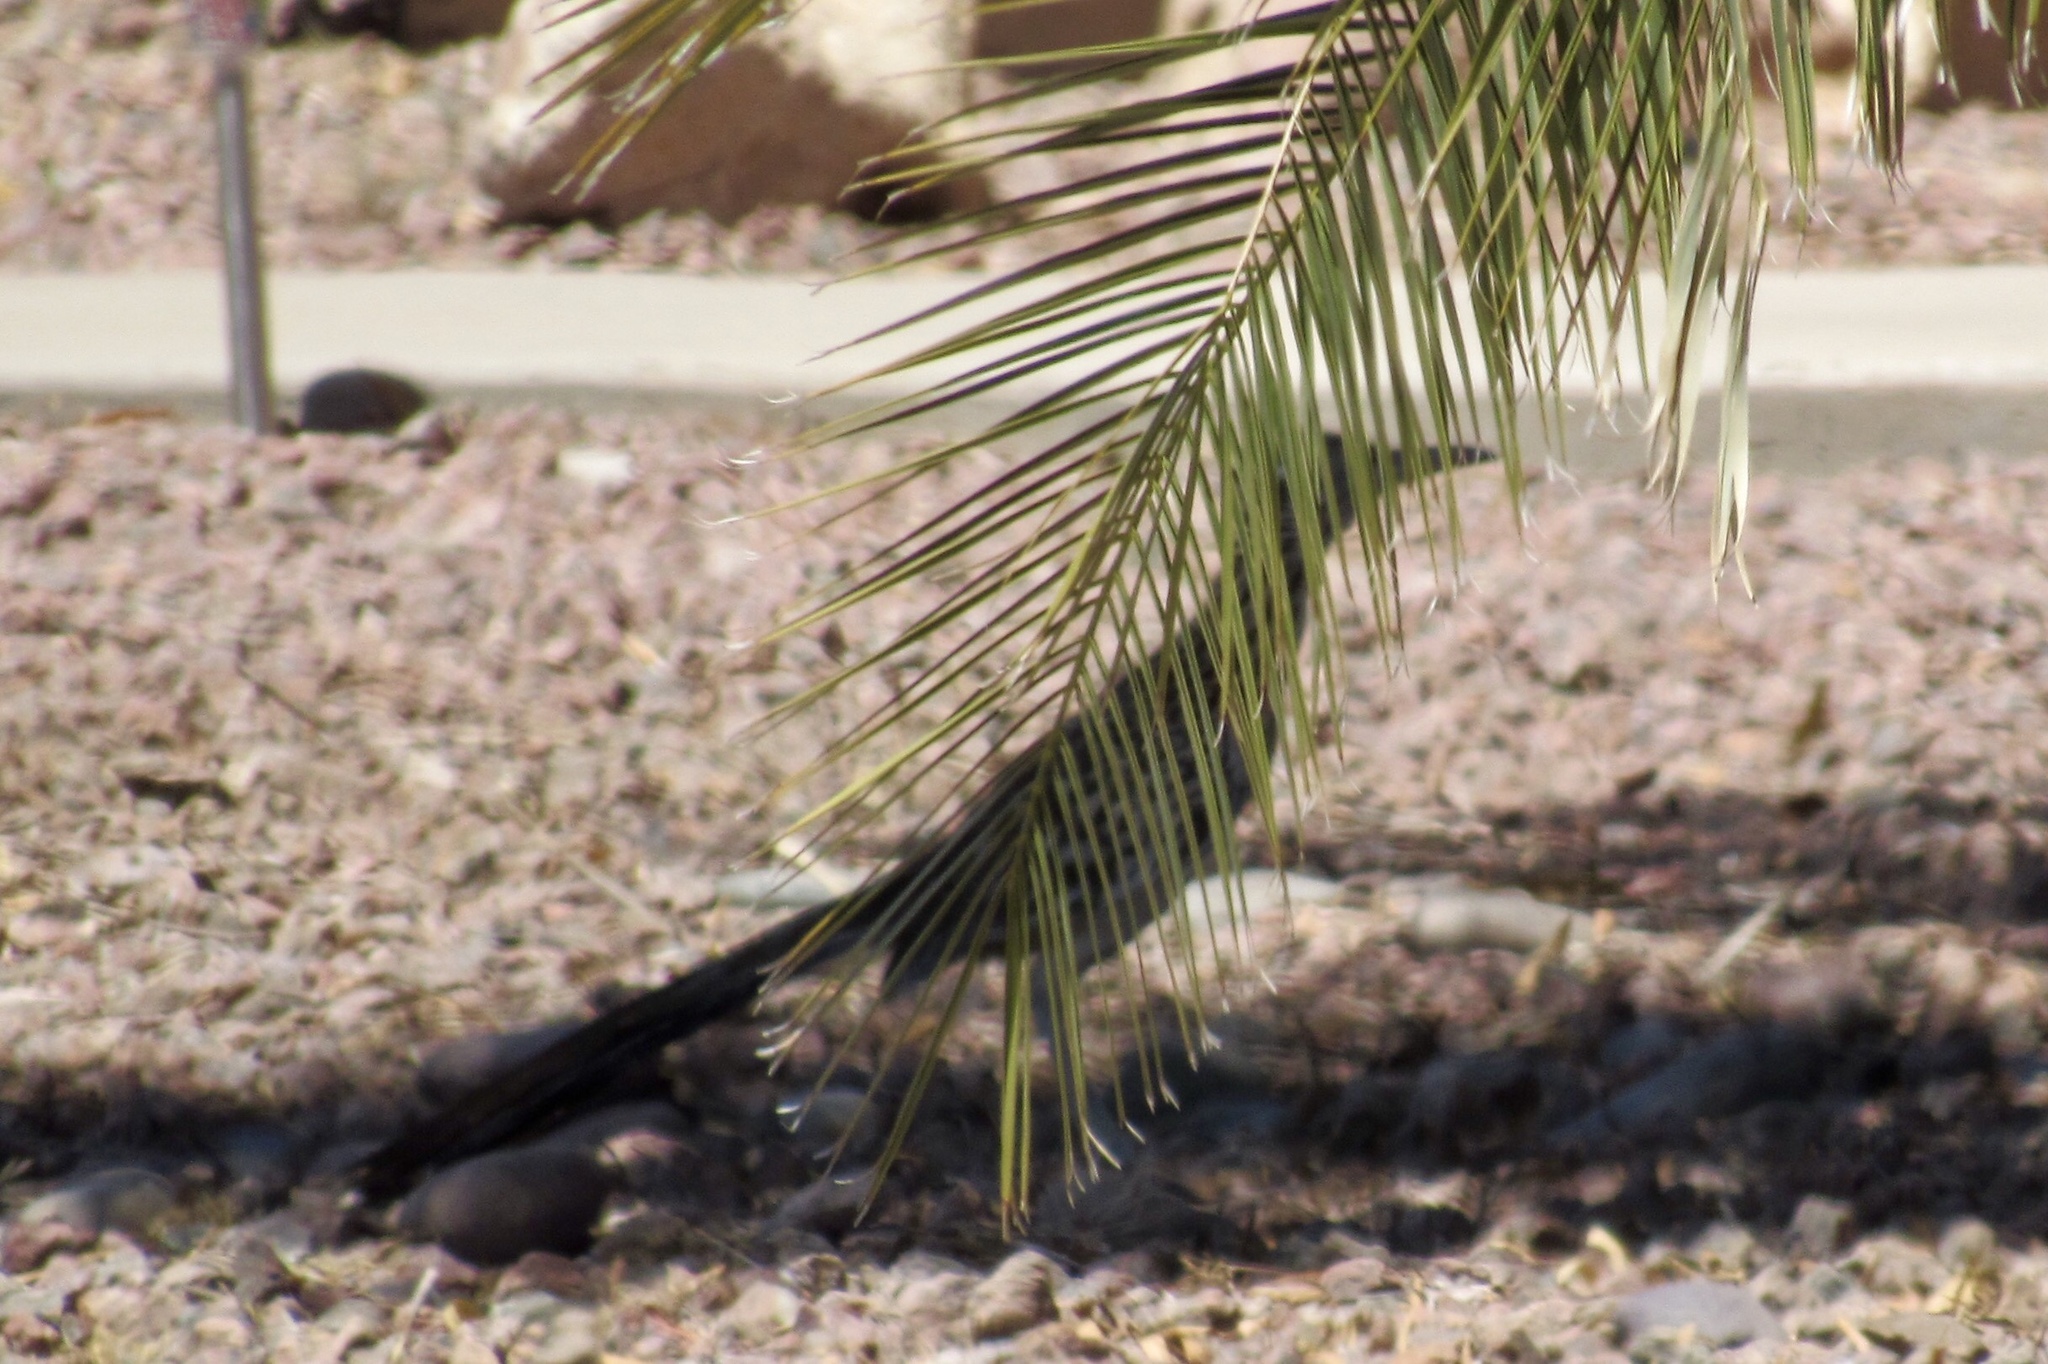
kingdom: Animalia
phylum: Chordata
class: Aves
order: Cuculiformes
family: Cuculidae
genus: Geococcyx
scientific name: Geococcyx californianus
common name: Greater roadrunner
